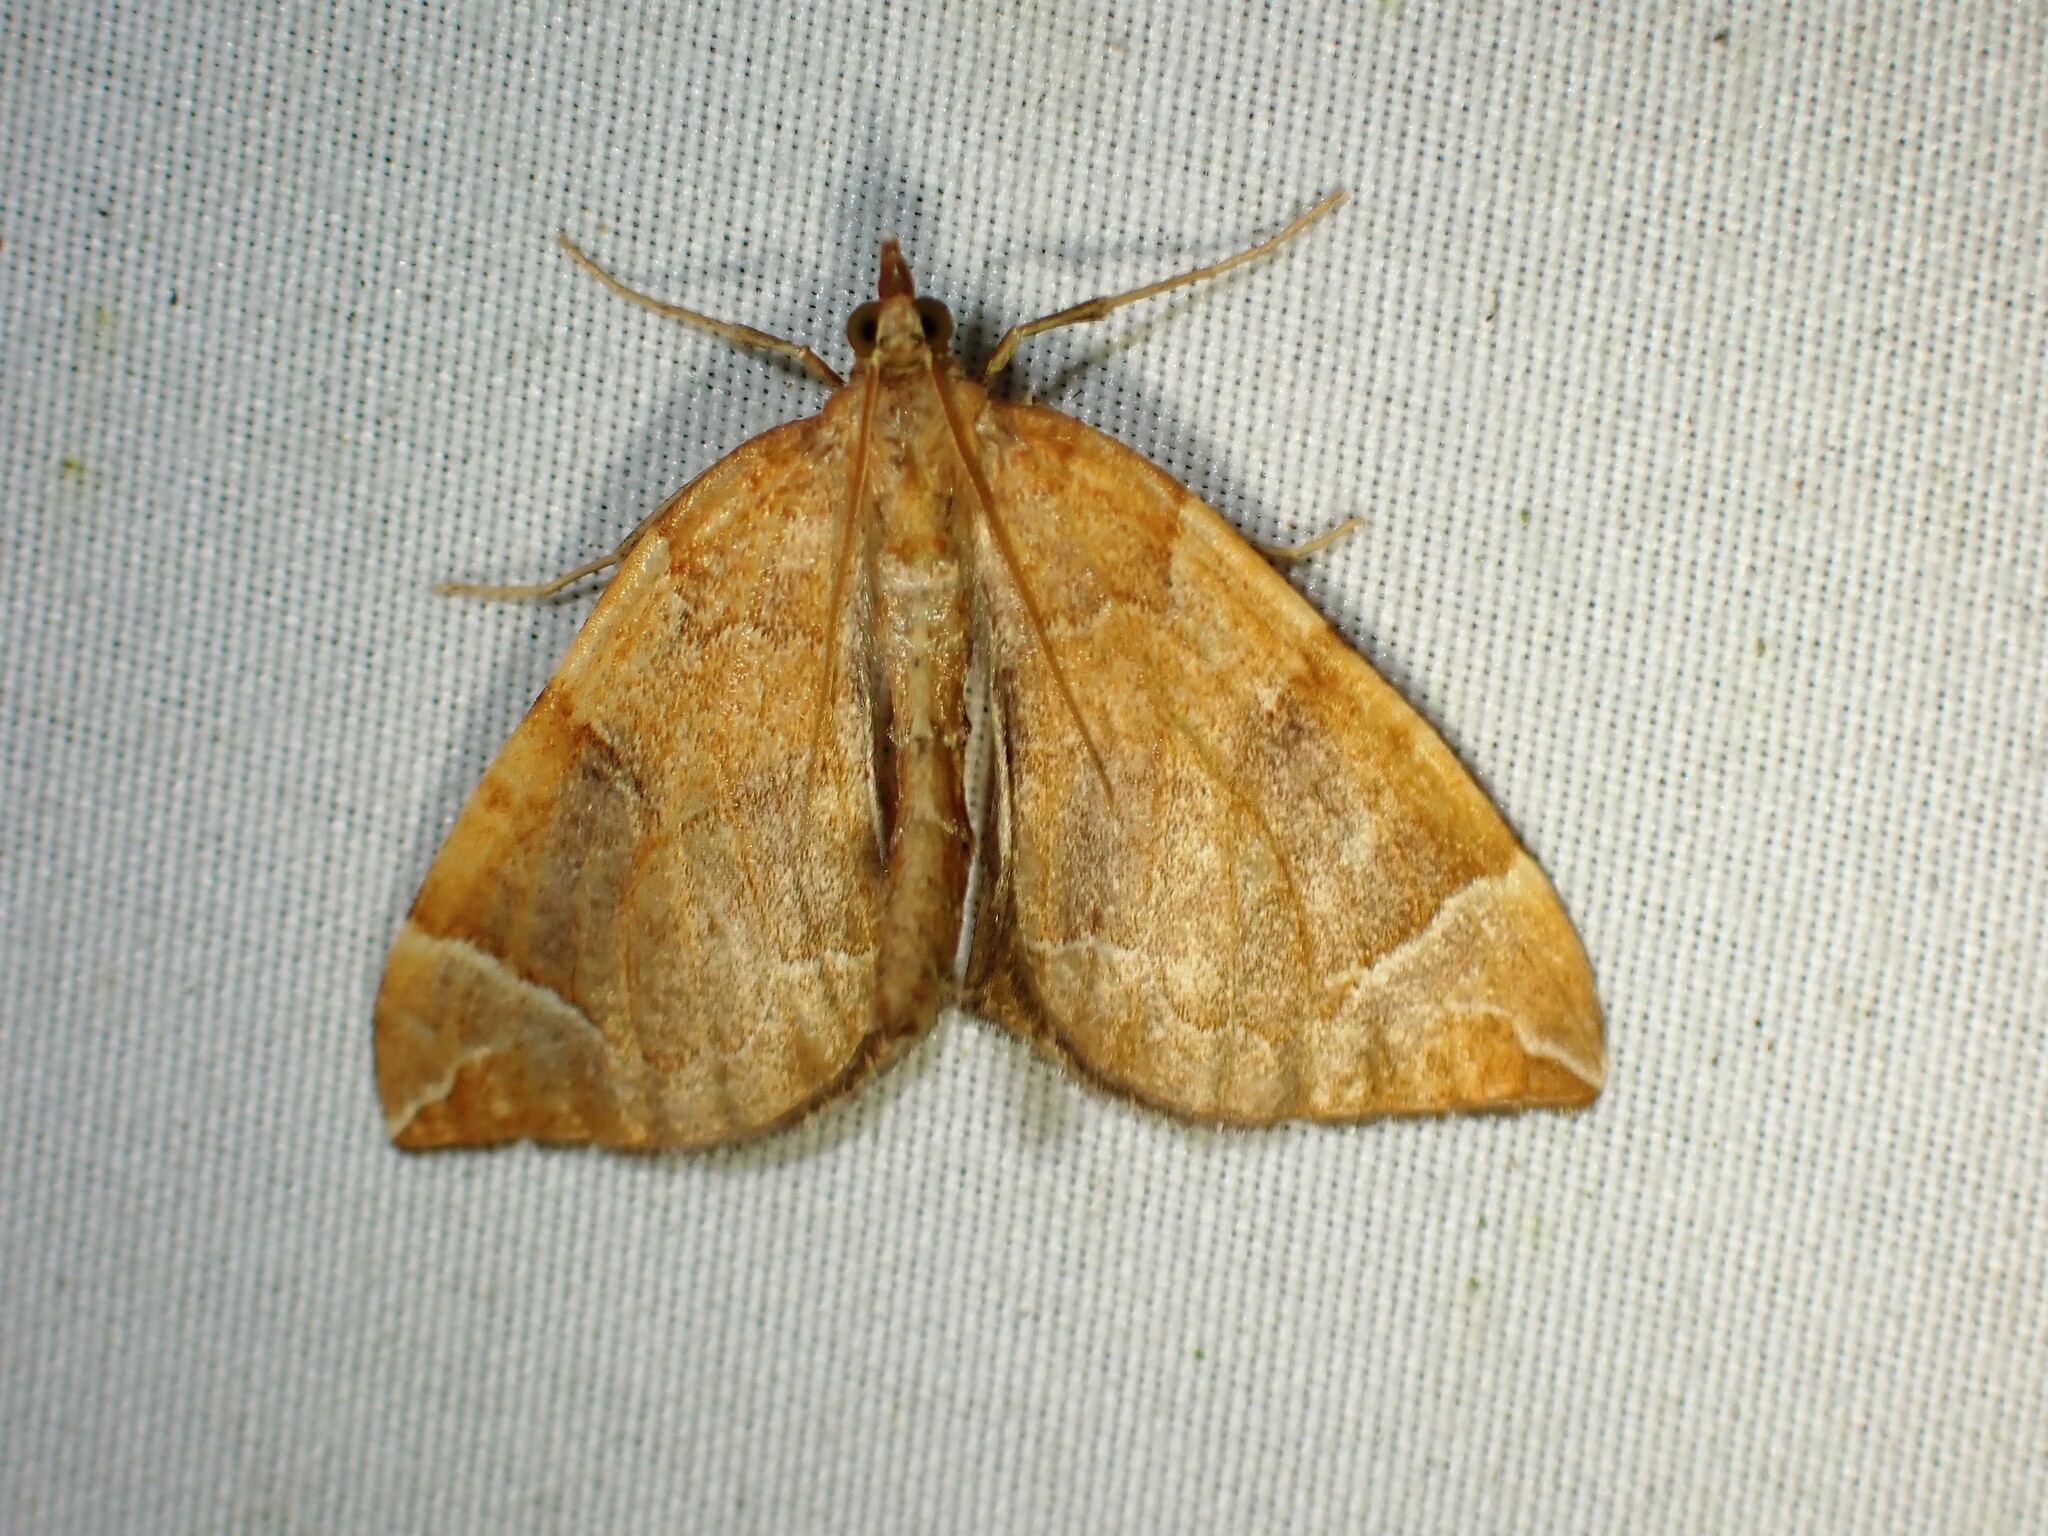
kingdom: Animalia
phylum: Arthropoda
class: Insecta
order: Lepidoptera
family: Geometridae
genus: Eulithis
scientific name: Eulithis testata
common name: Chevron
